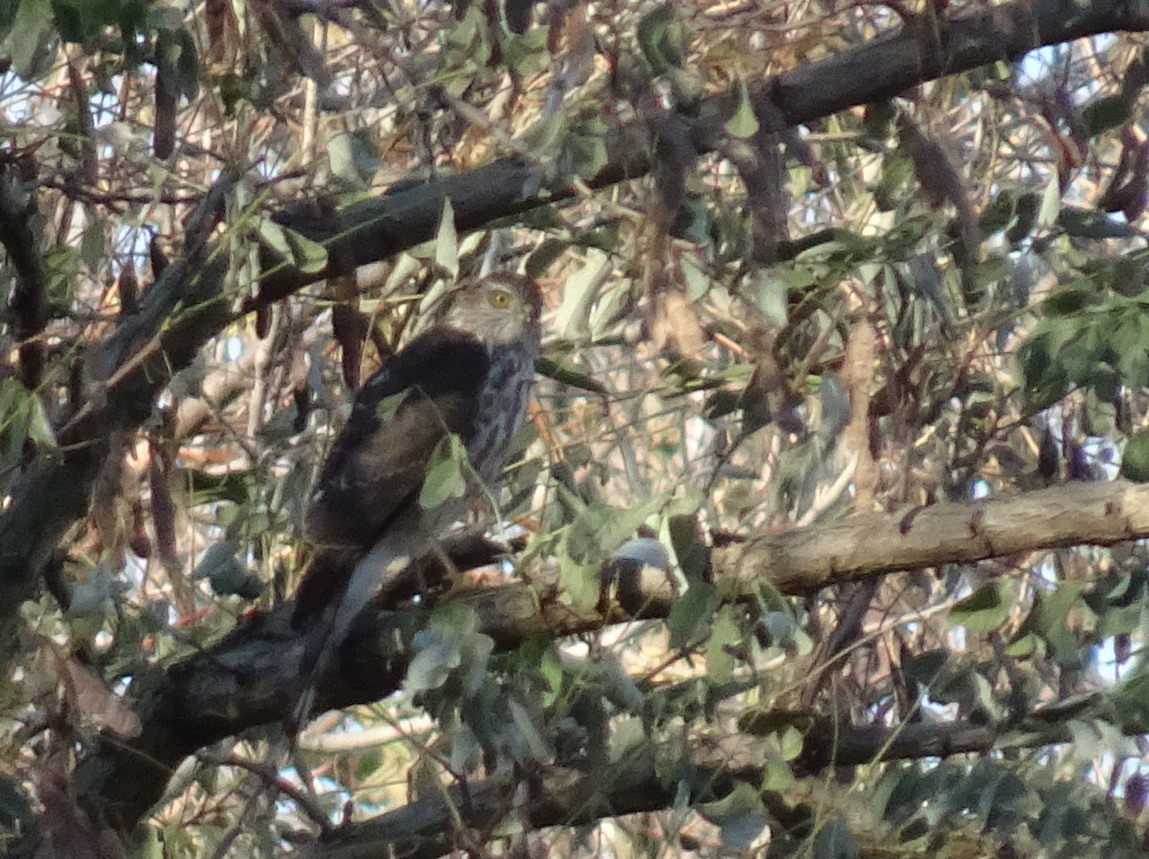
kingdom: Animalia
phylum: Chordata
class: Aves
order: Accipitriformes
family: Accipitridae
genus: Accipiter
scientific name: Accipiter striatus
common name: Sharp-shinned hawk
